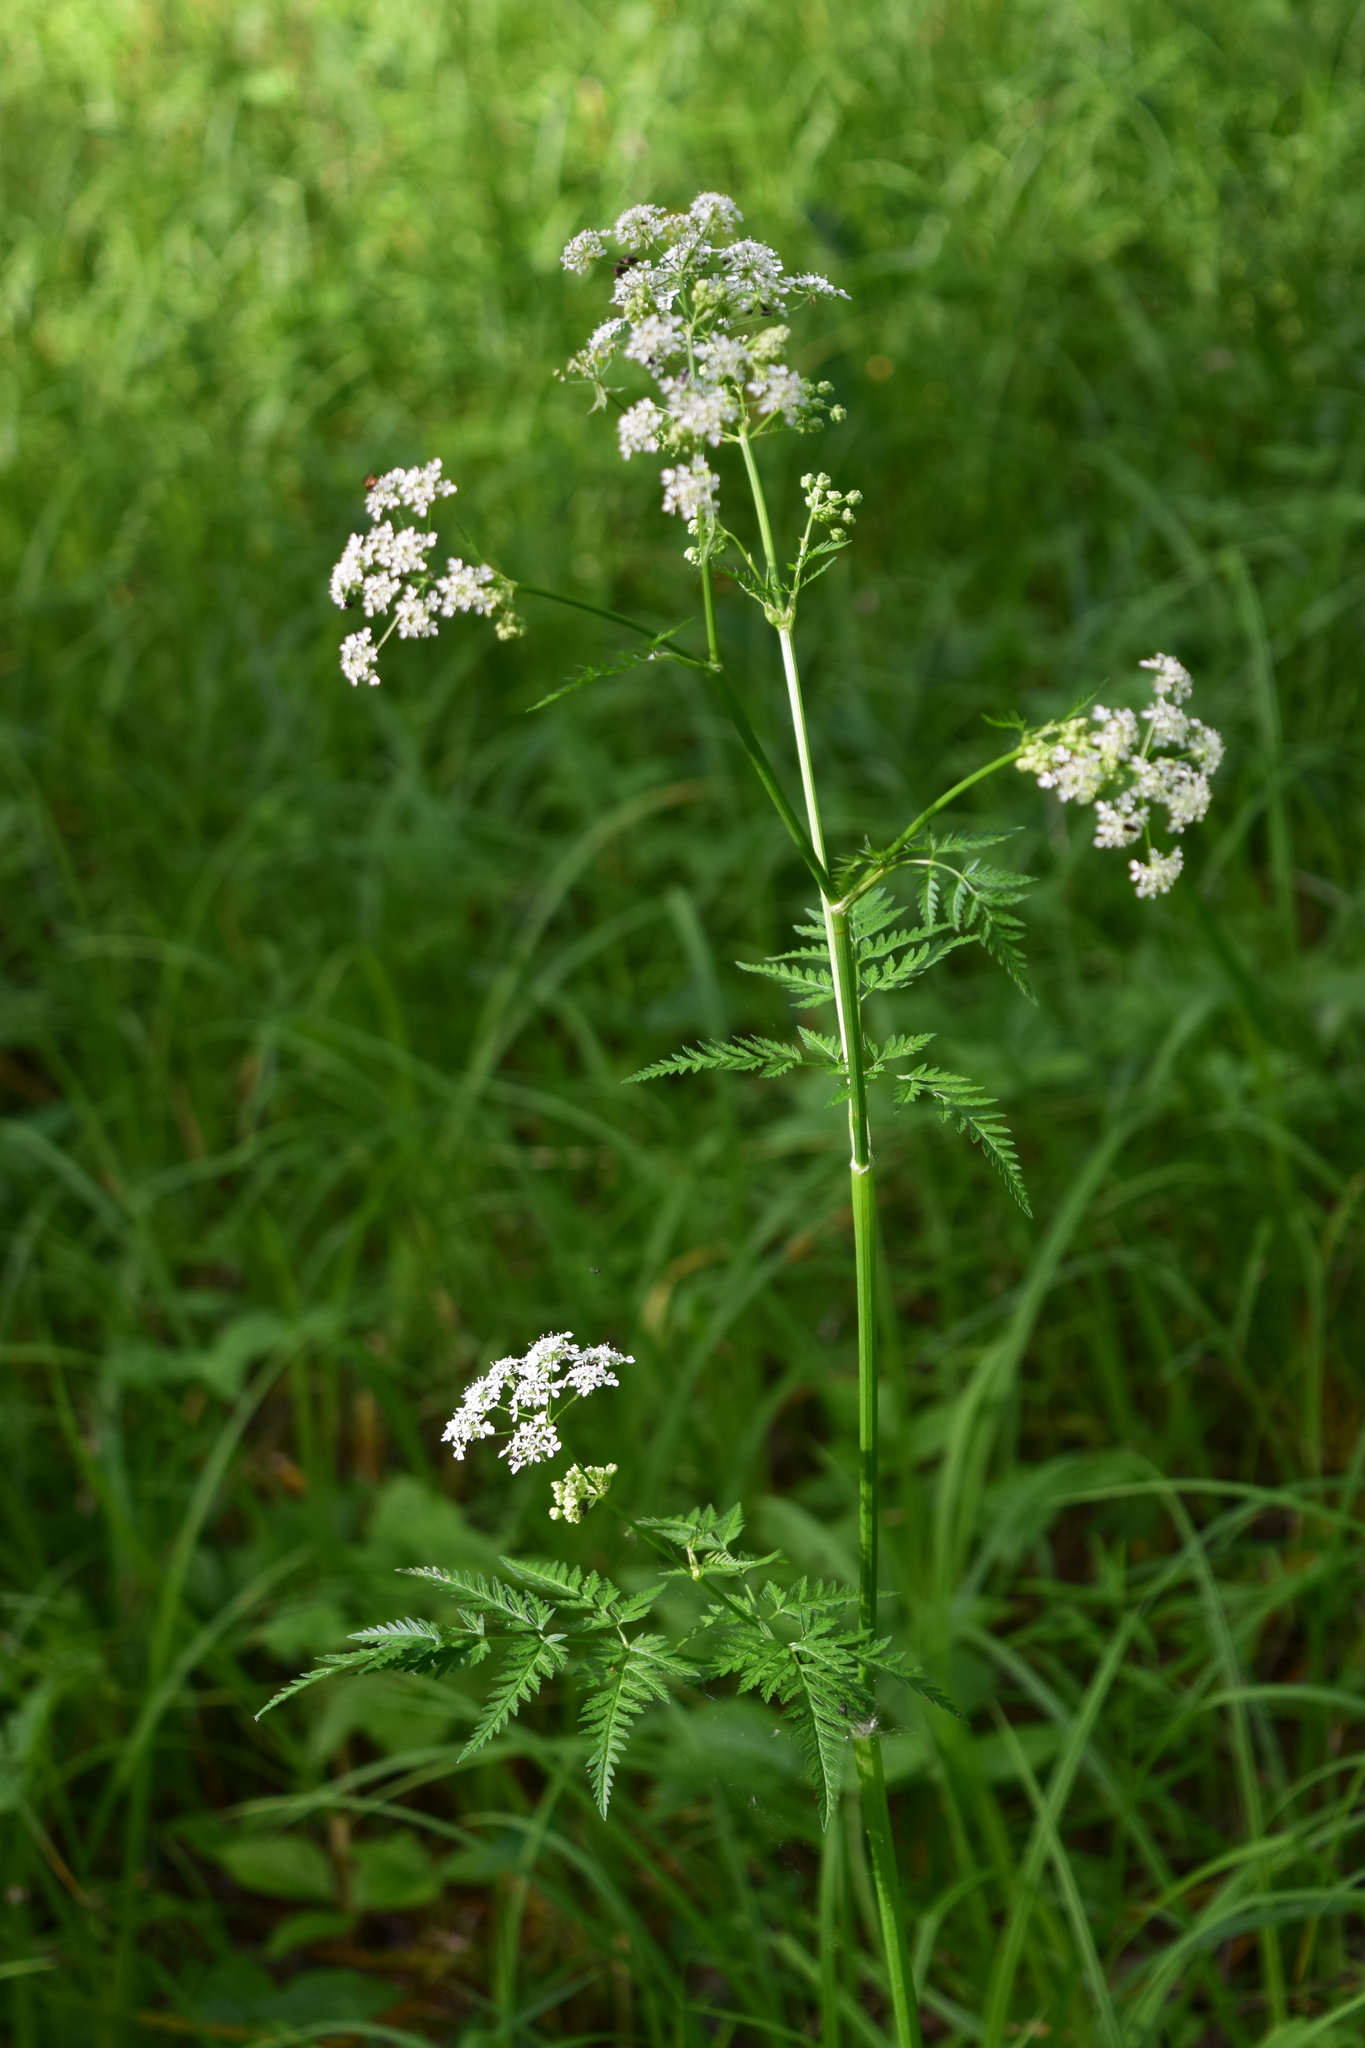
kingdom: Plantae
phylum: Tracheophyta
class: Magnoliopsida
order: Apiales
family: Apiaceae
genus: Anthriscus
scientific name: Anthriscus sylvestris
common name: Cow parsley
